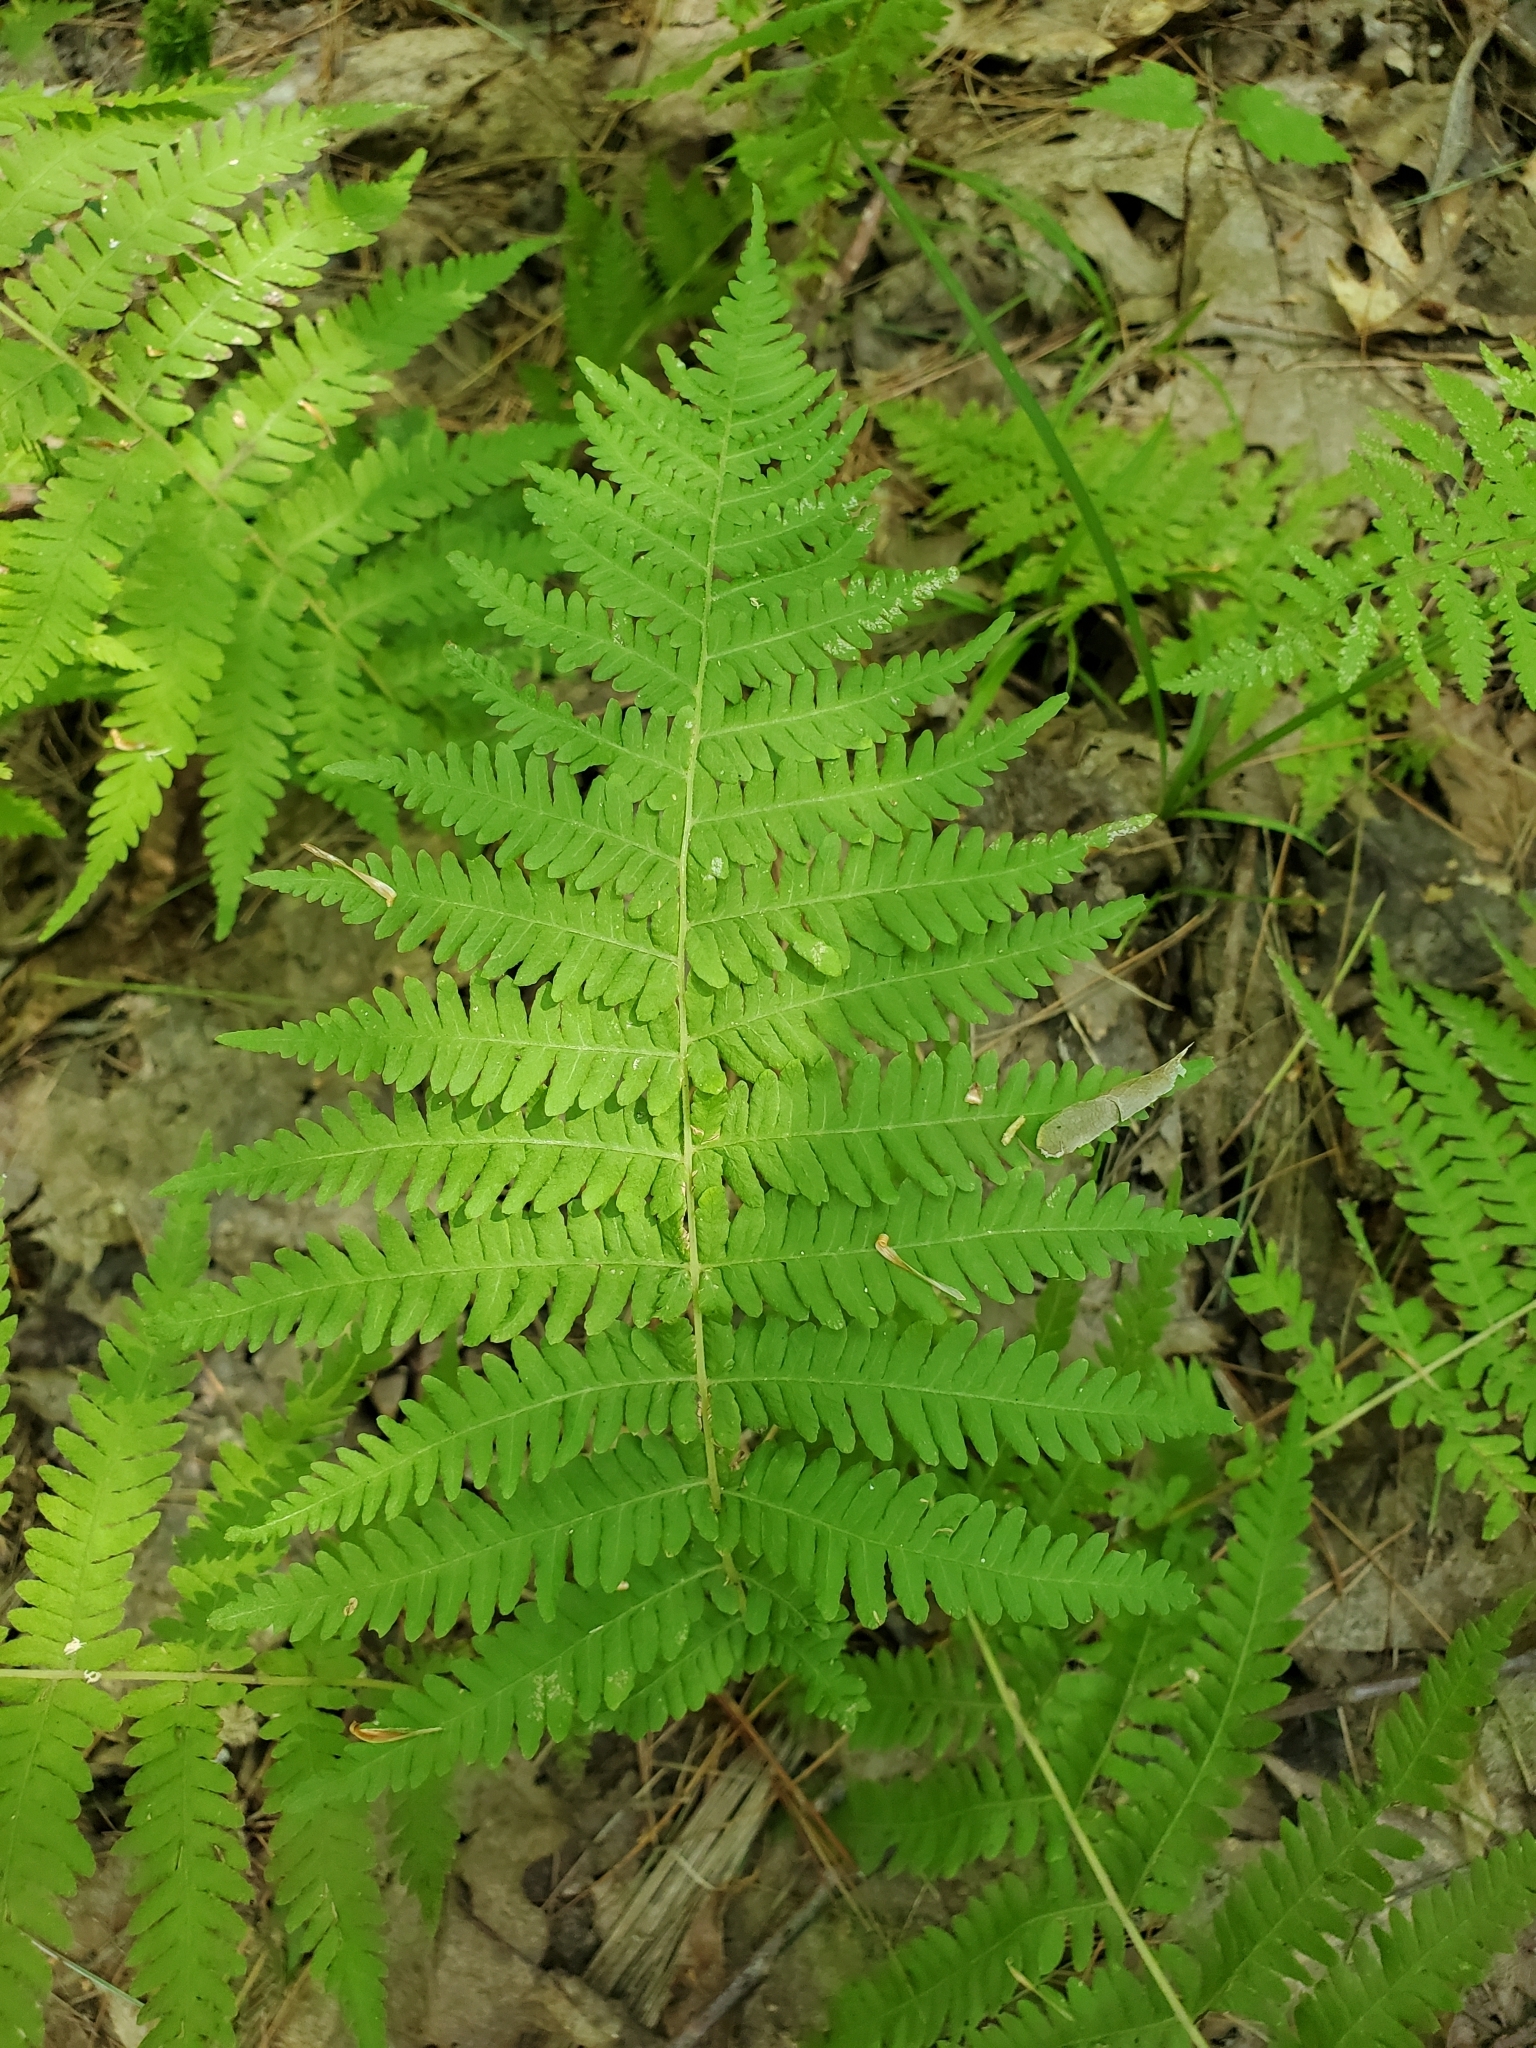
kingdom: Plantae
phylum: Tracheophyta
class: Polypodiopsida
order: Polypodiales
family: Thelypteridaceae
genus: Amauropelta
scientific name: Amauropelta noveboracensis
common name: New york fern
